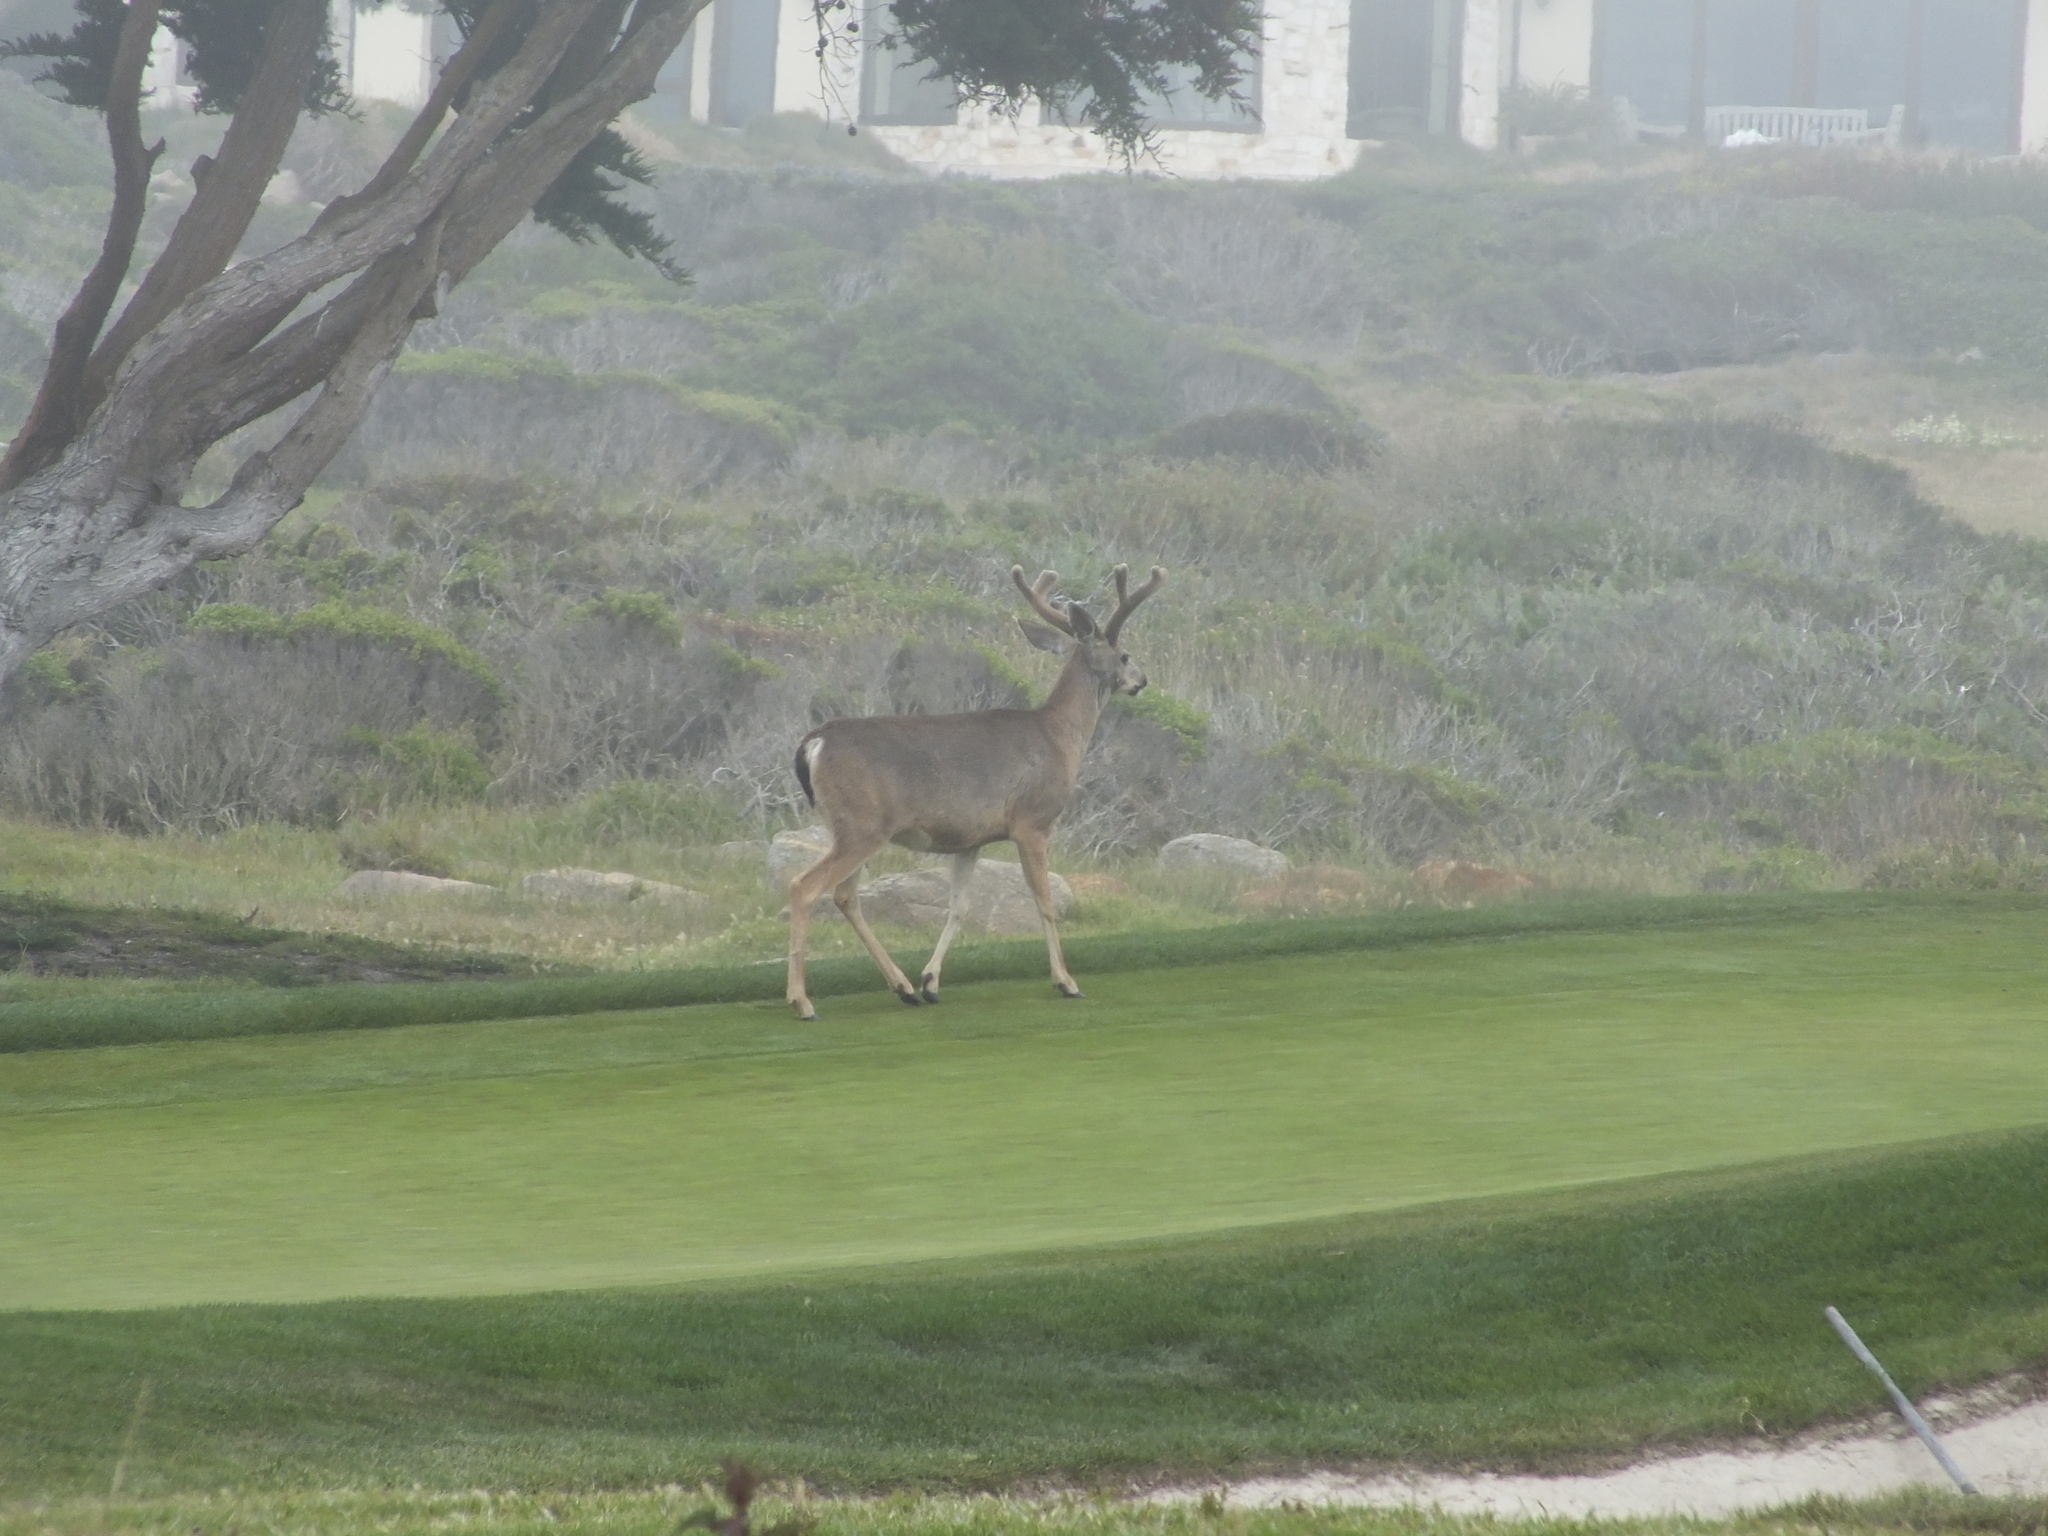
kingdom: Animalia
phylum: Chordata
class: Mammalia
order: Artiodactyla
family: Cervidae
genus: Odocoileus
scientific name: Odocoileus hemionus
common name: Mule deer
